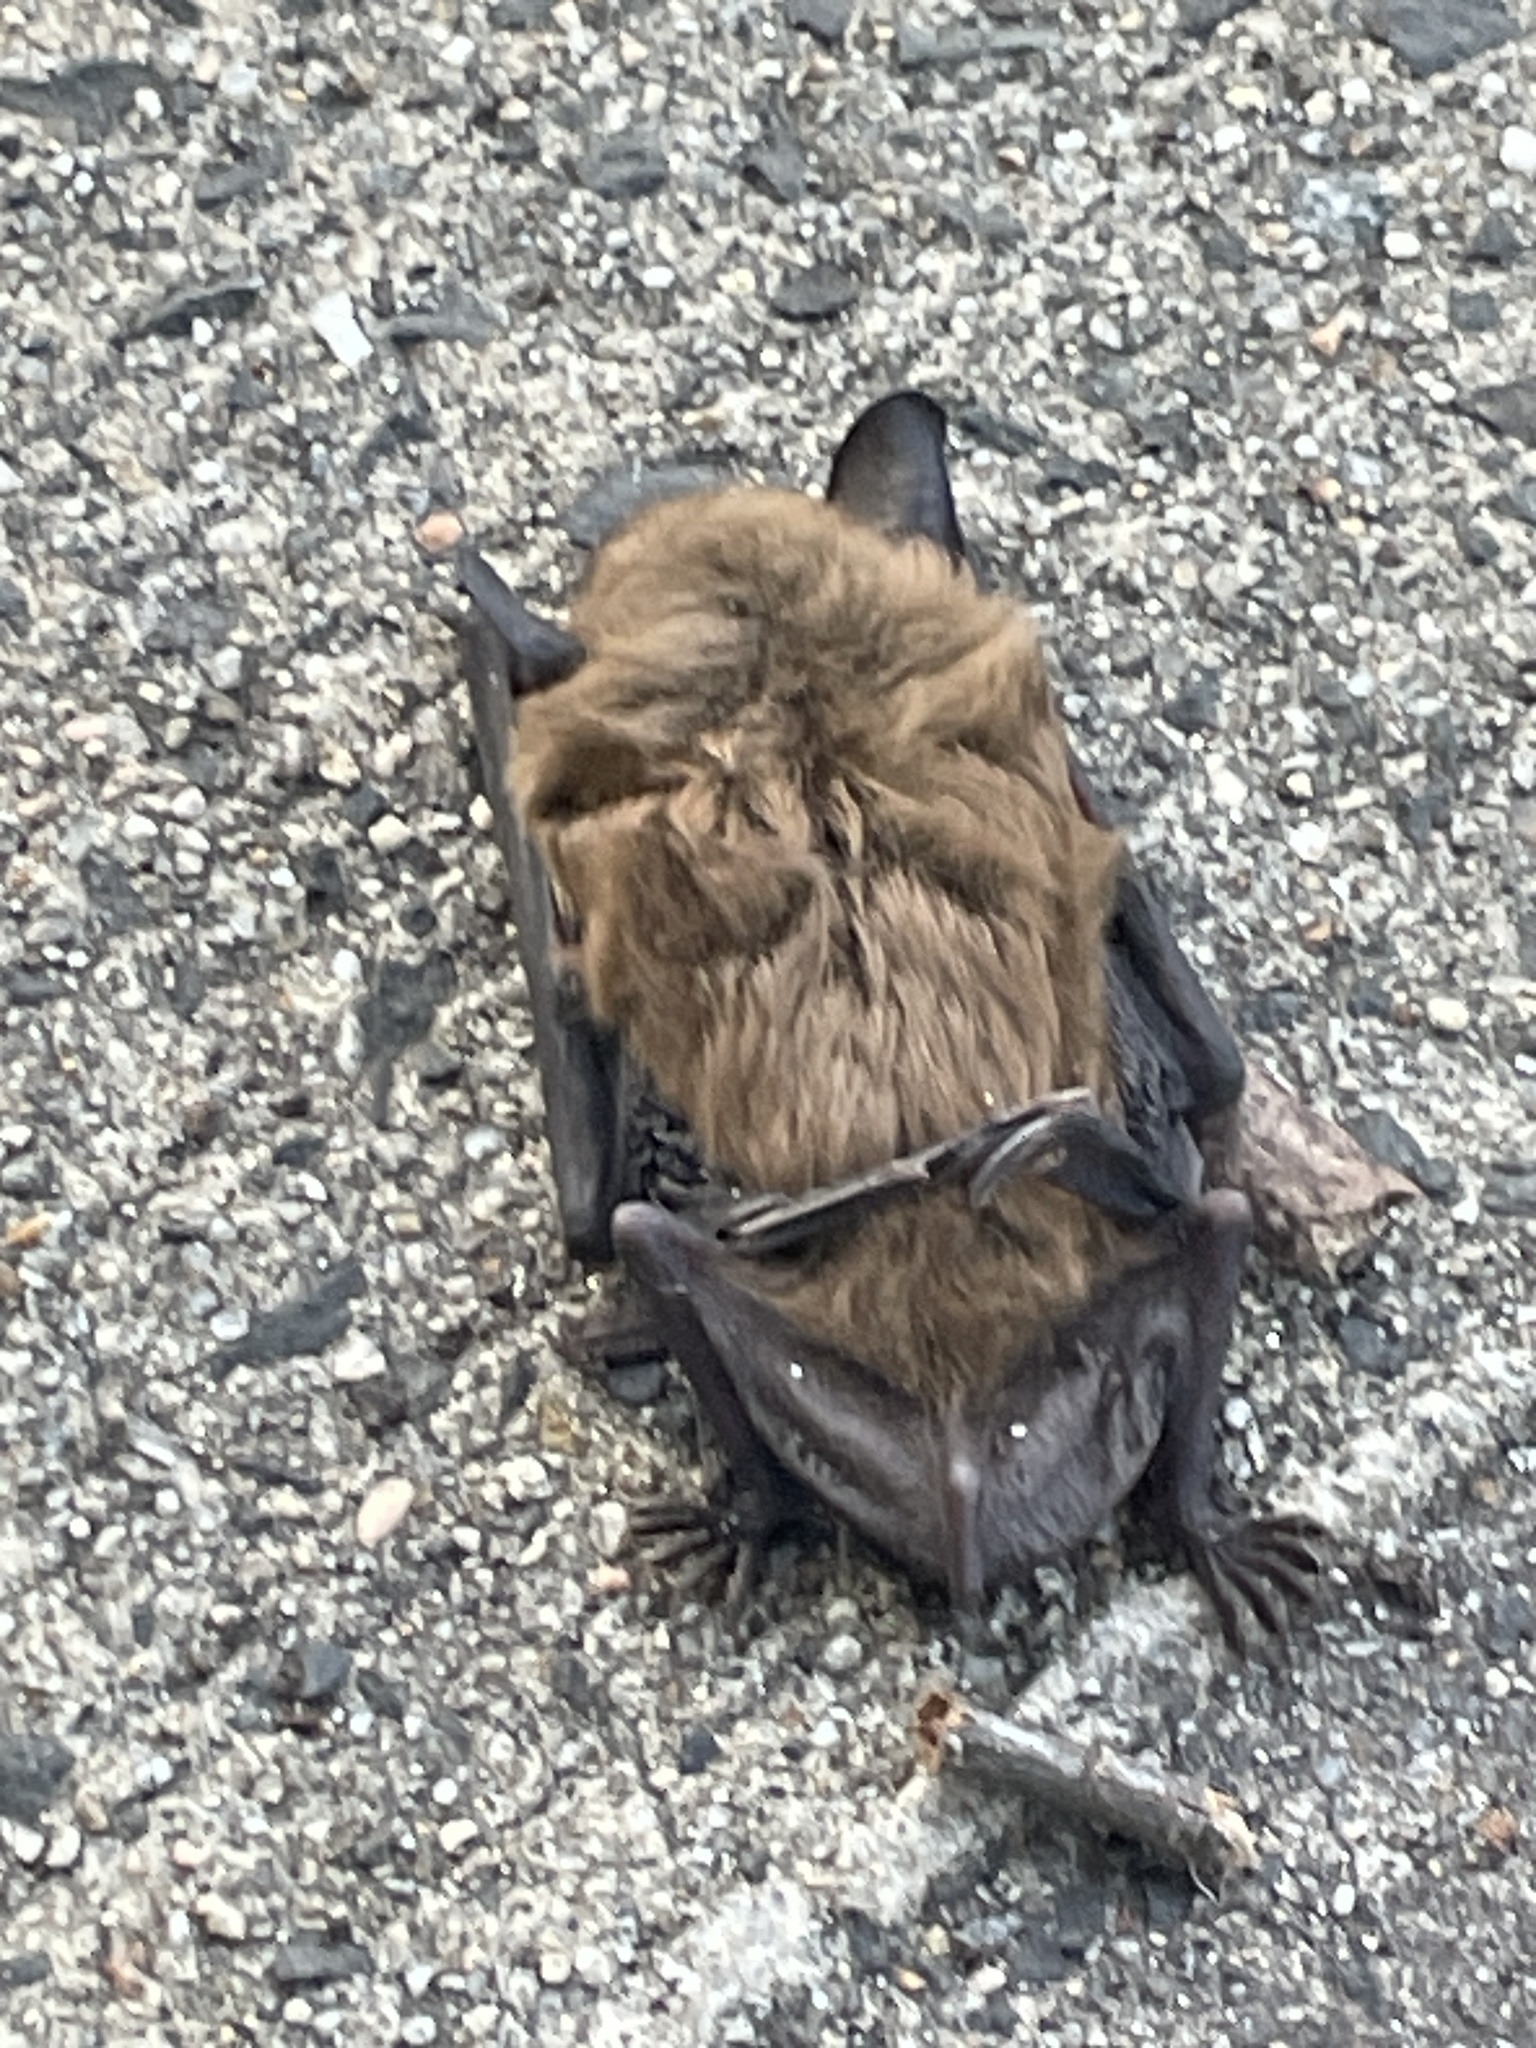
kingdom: Animalia
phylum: Chordata
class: Mammalia
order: Chiroptera
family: Vespertilionidae
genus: Eptesicus
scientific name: Eptesicus fuscus
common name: Big brown bat
